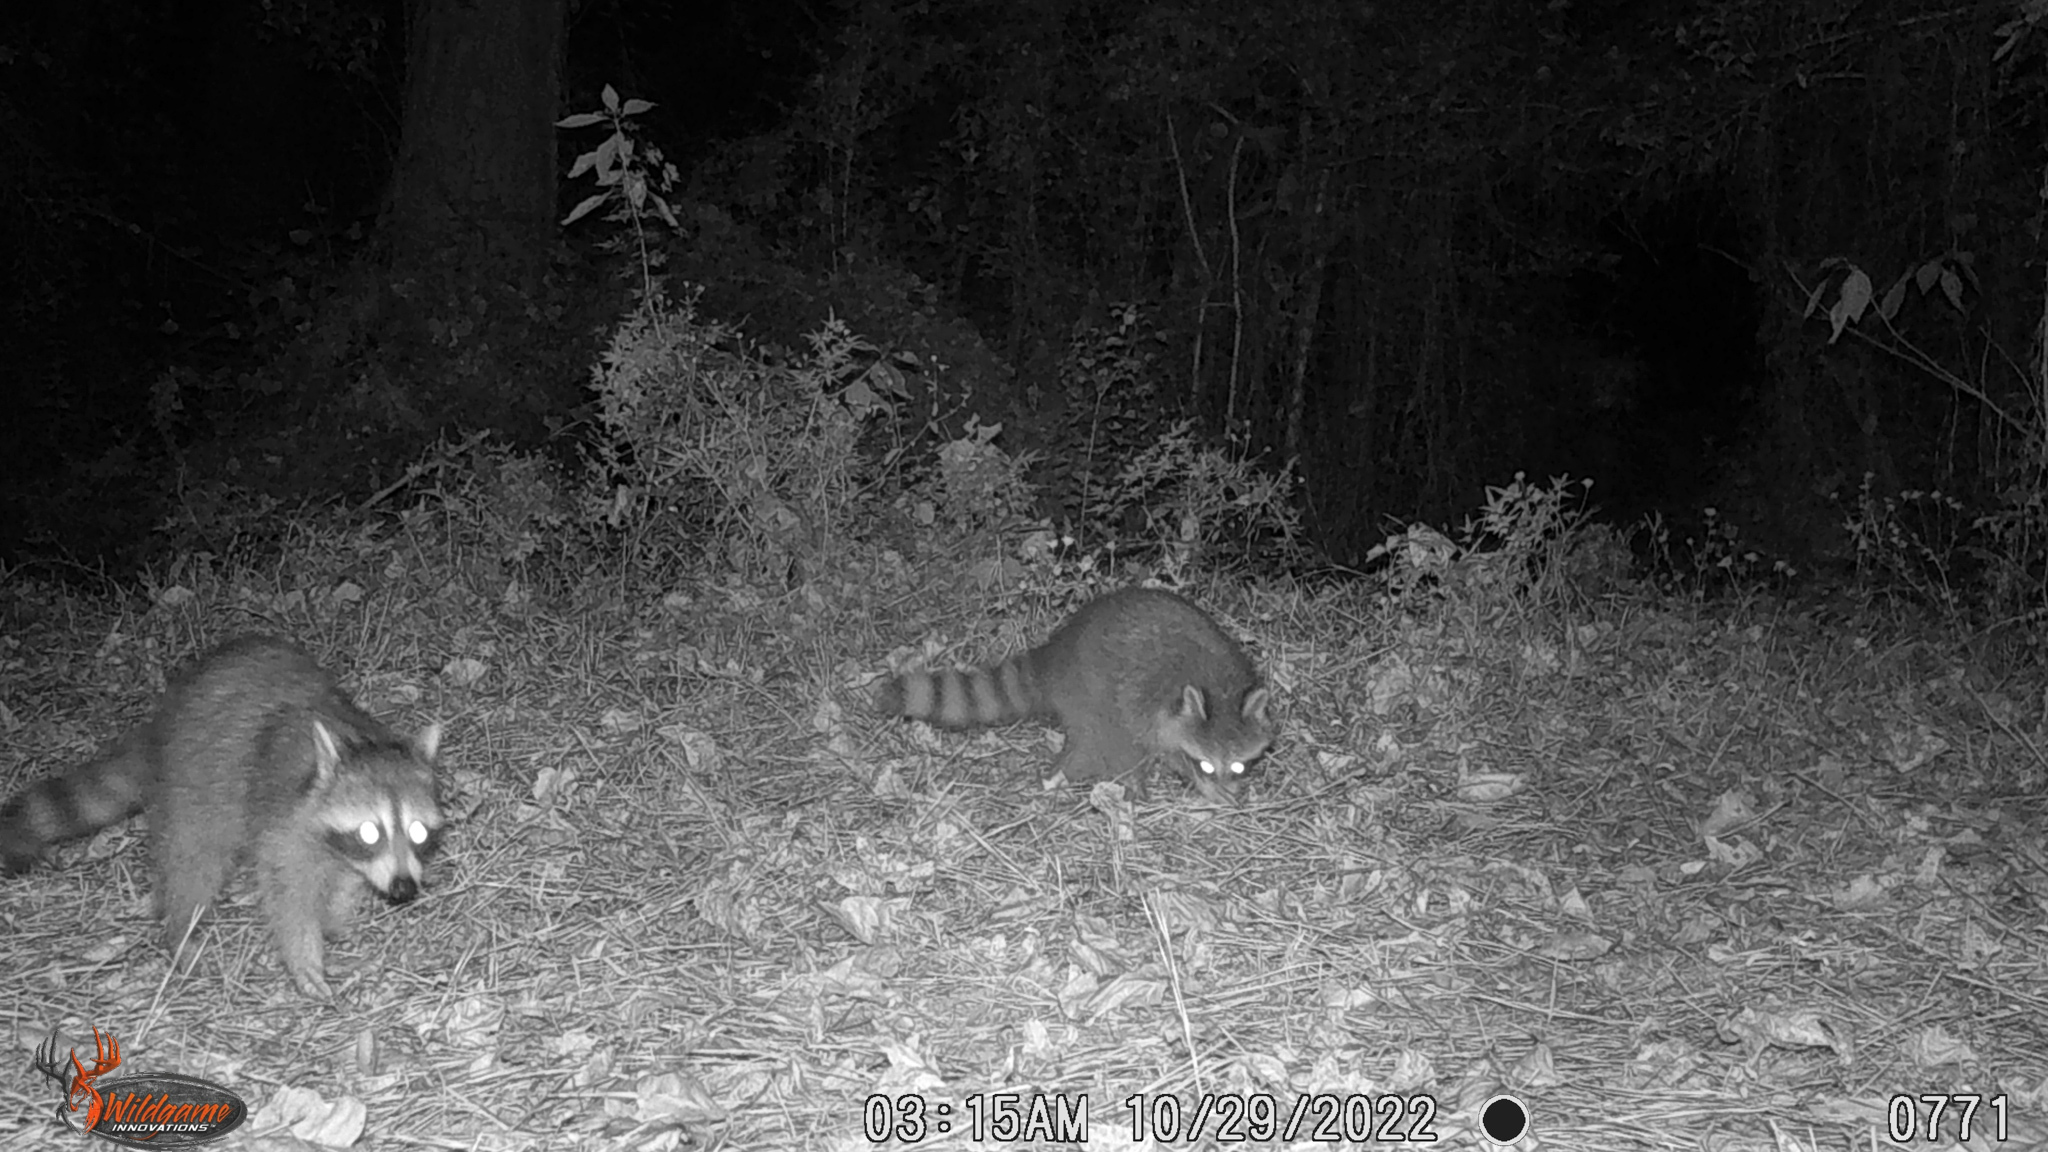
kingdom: Animalia
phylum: Chordata
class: Mammalia
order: Carnivora
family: Procyonidae
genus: Procyon
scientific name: Procyon lotor
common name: Raccoon
